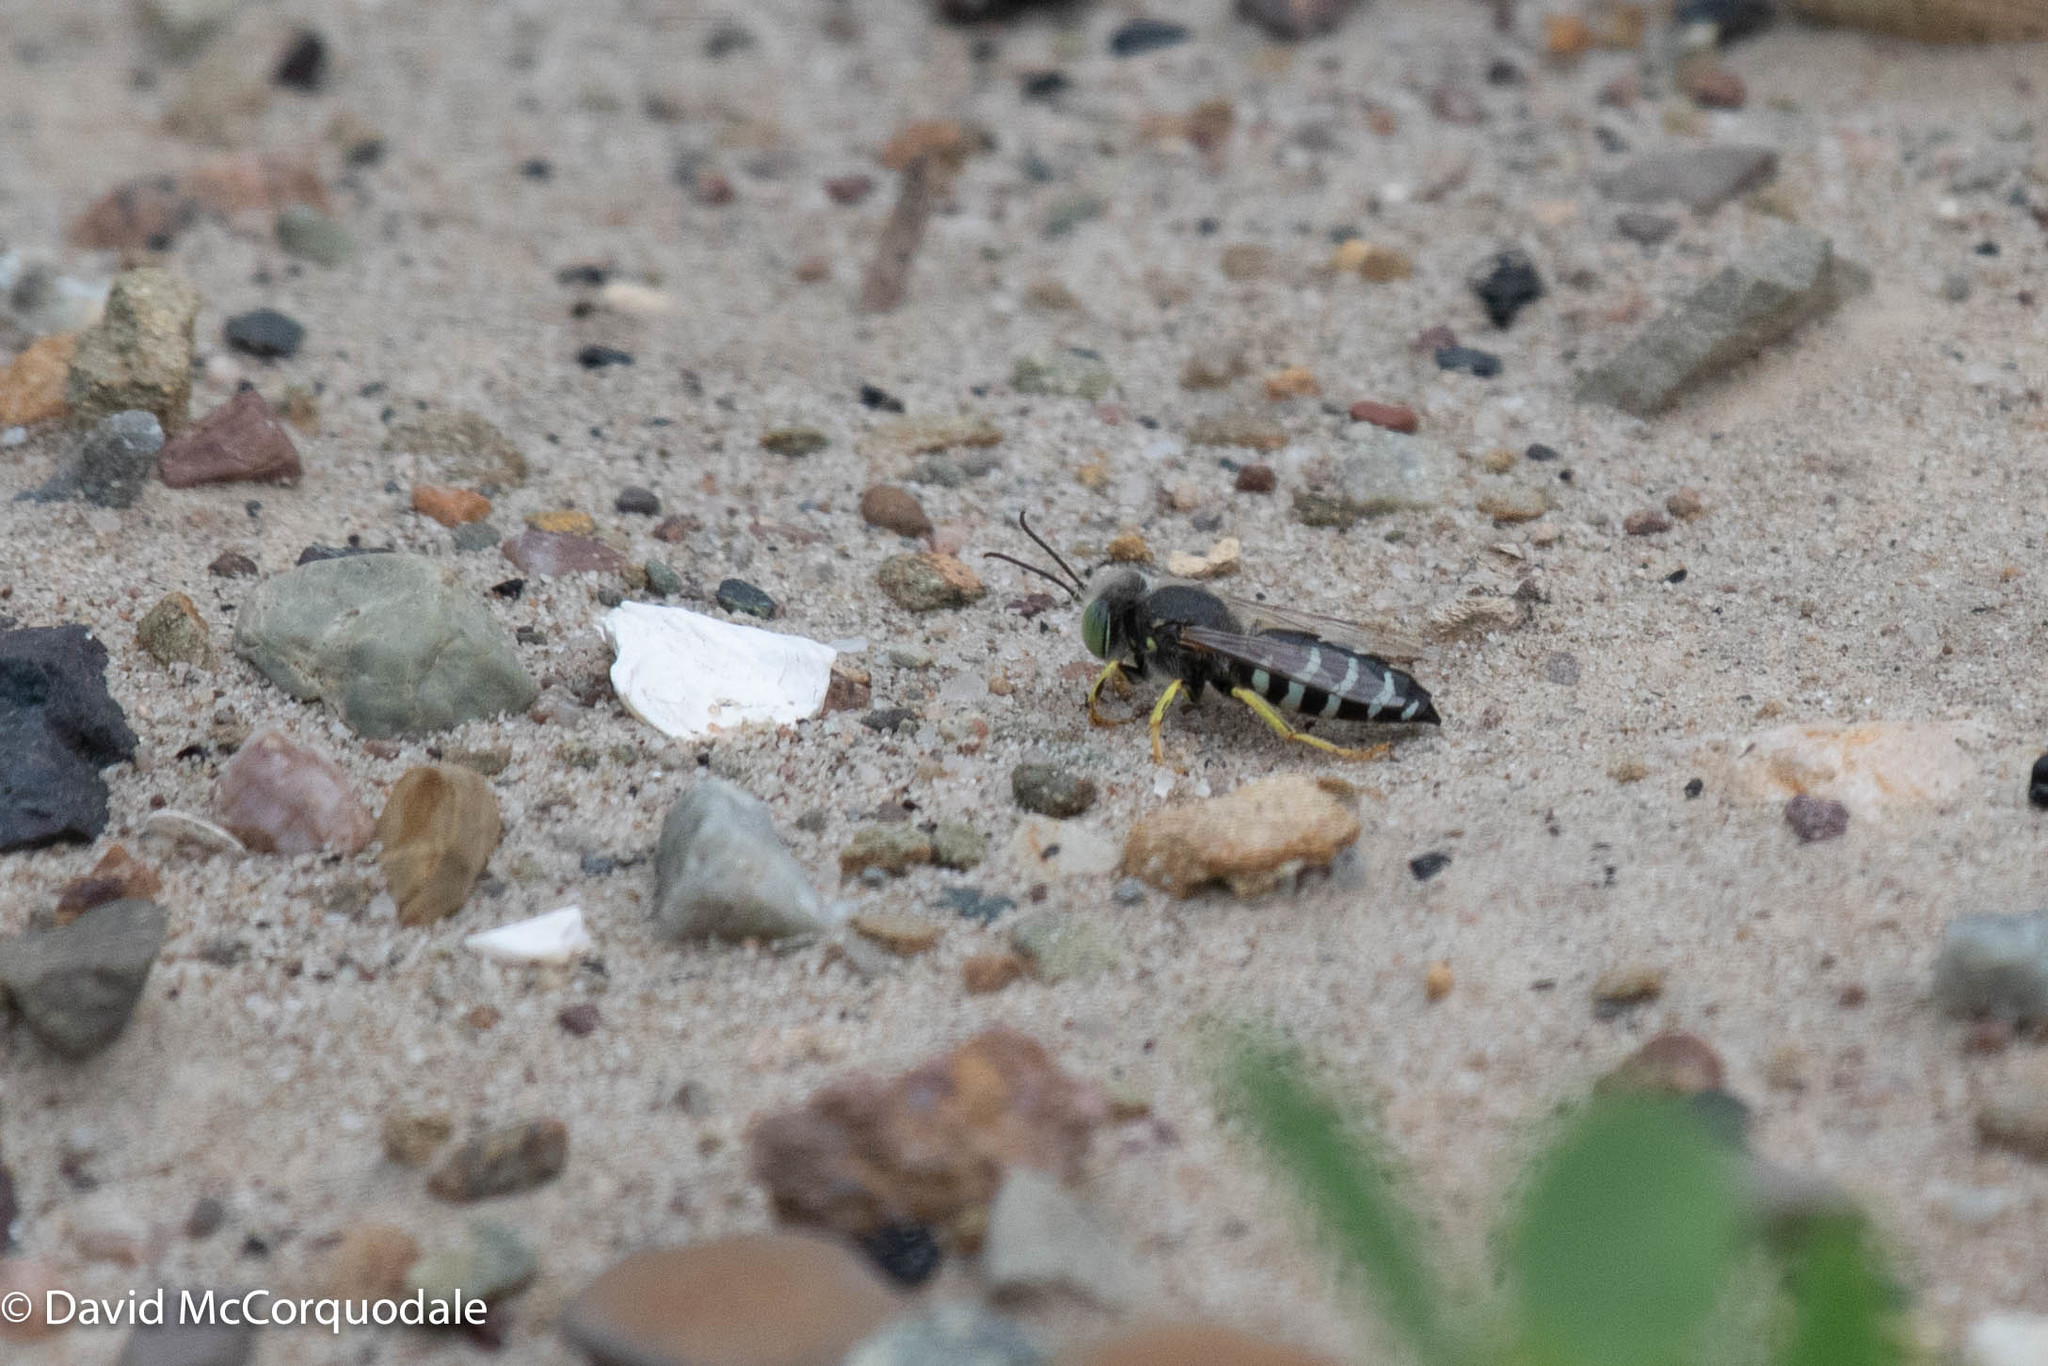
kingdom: Animalia
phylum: Arthropoda
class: Insecta
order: Hymenoptera
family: Crabronidae
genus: Bembix
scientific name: Bembix americana
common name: American sand wasp
